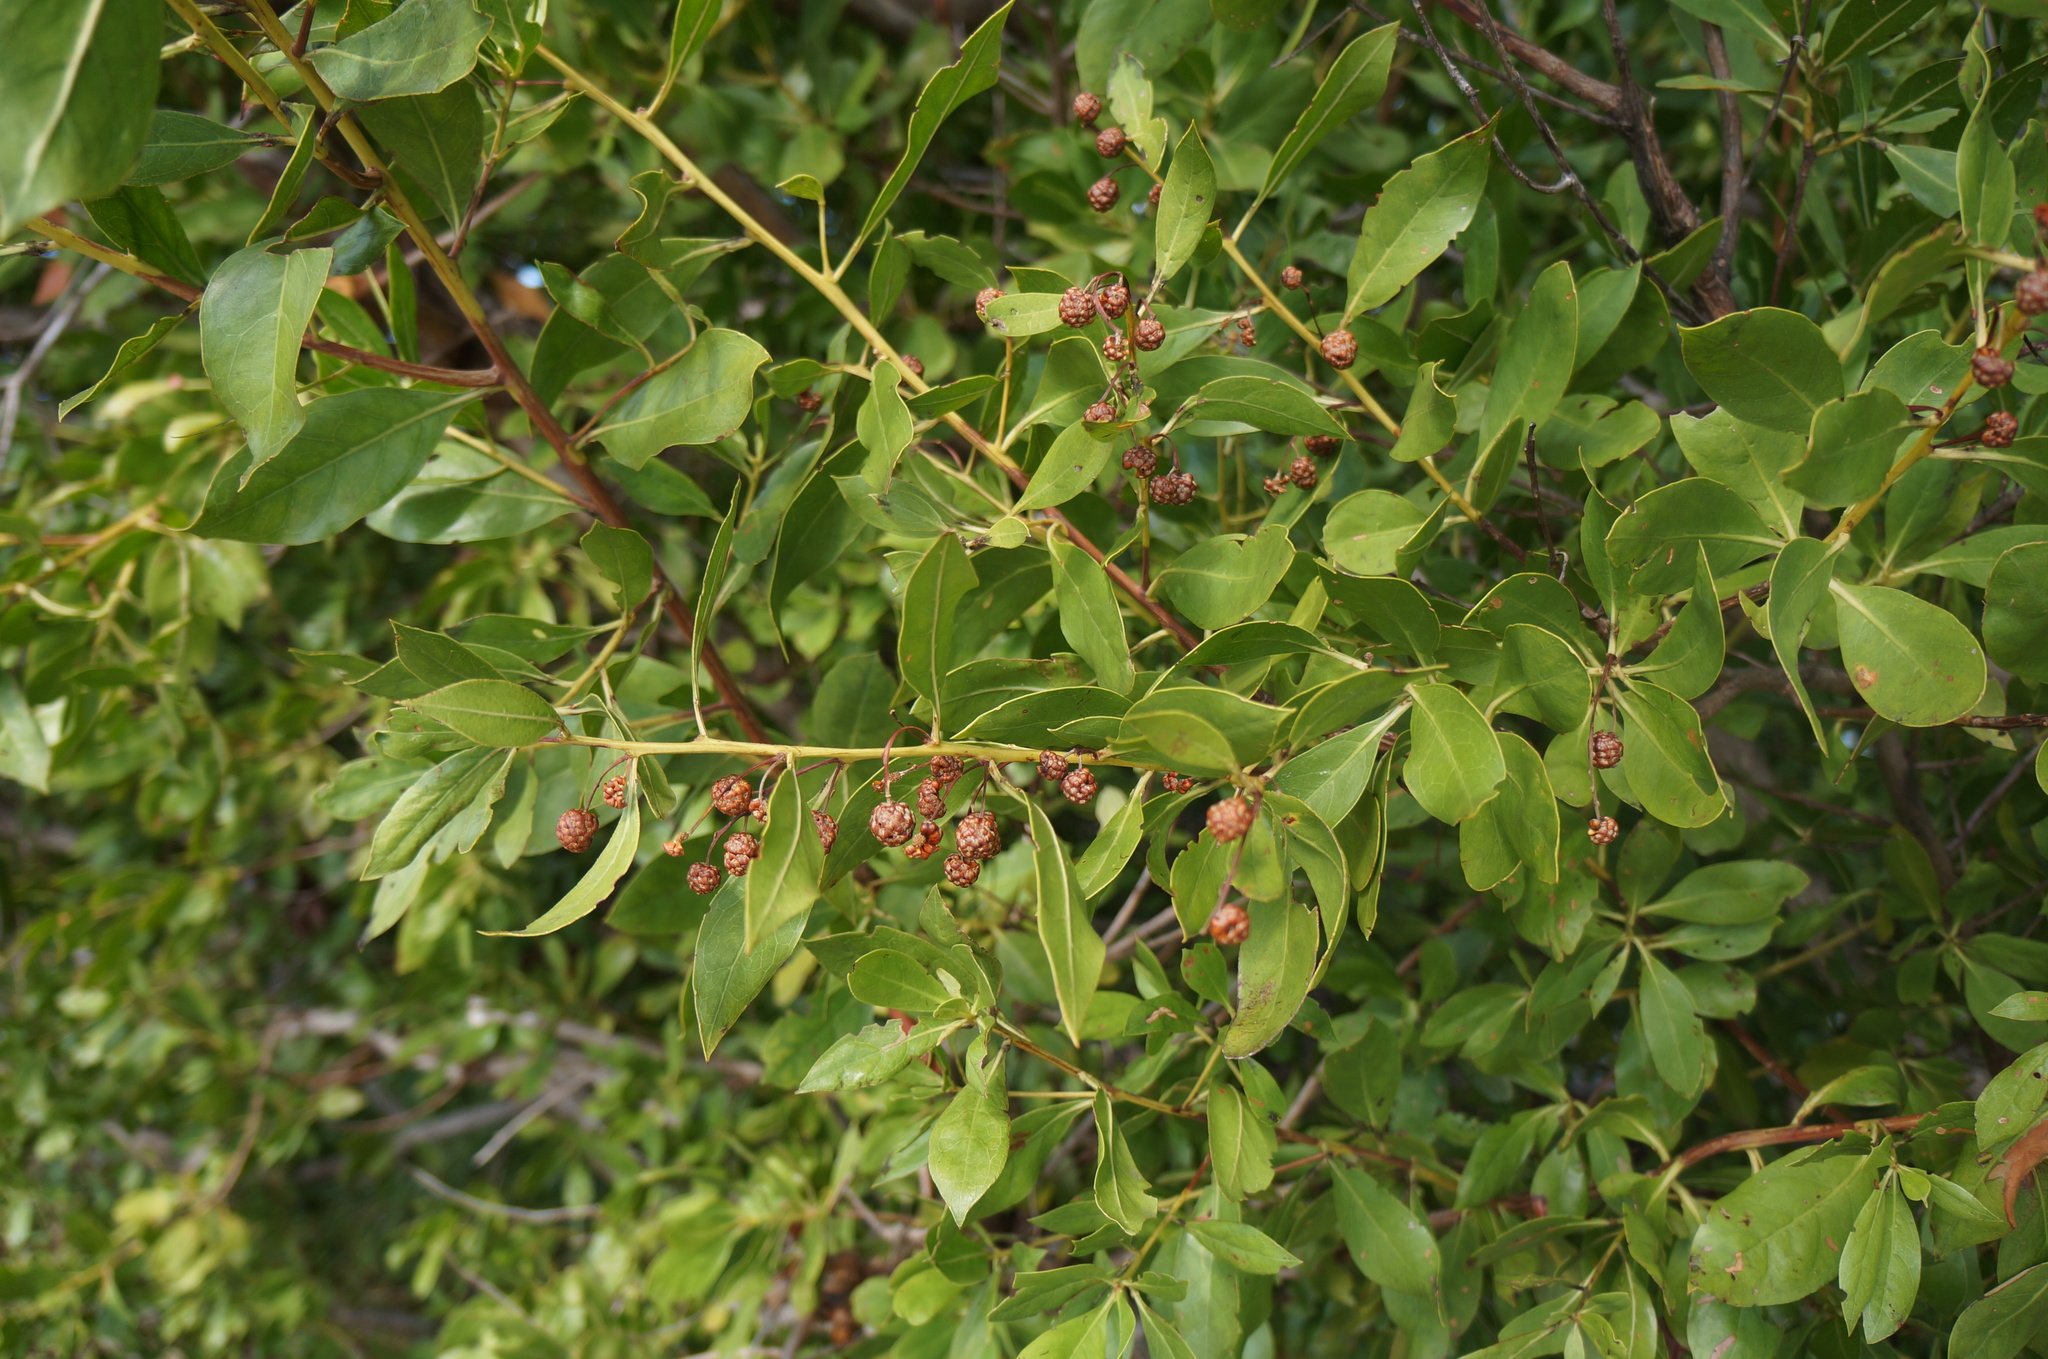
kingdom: Plantae
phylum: Tracheophyta
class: Magnoliopsida
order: Myrtales
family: Combretaceae
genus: Conocarpus
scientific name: Conocarpus erectus
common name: Button mangrove
